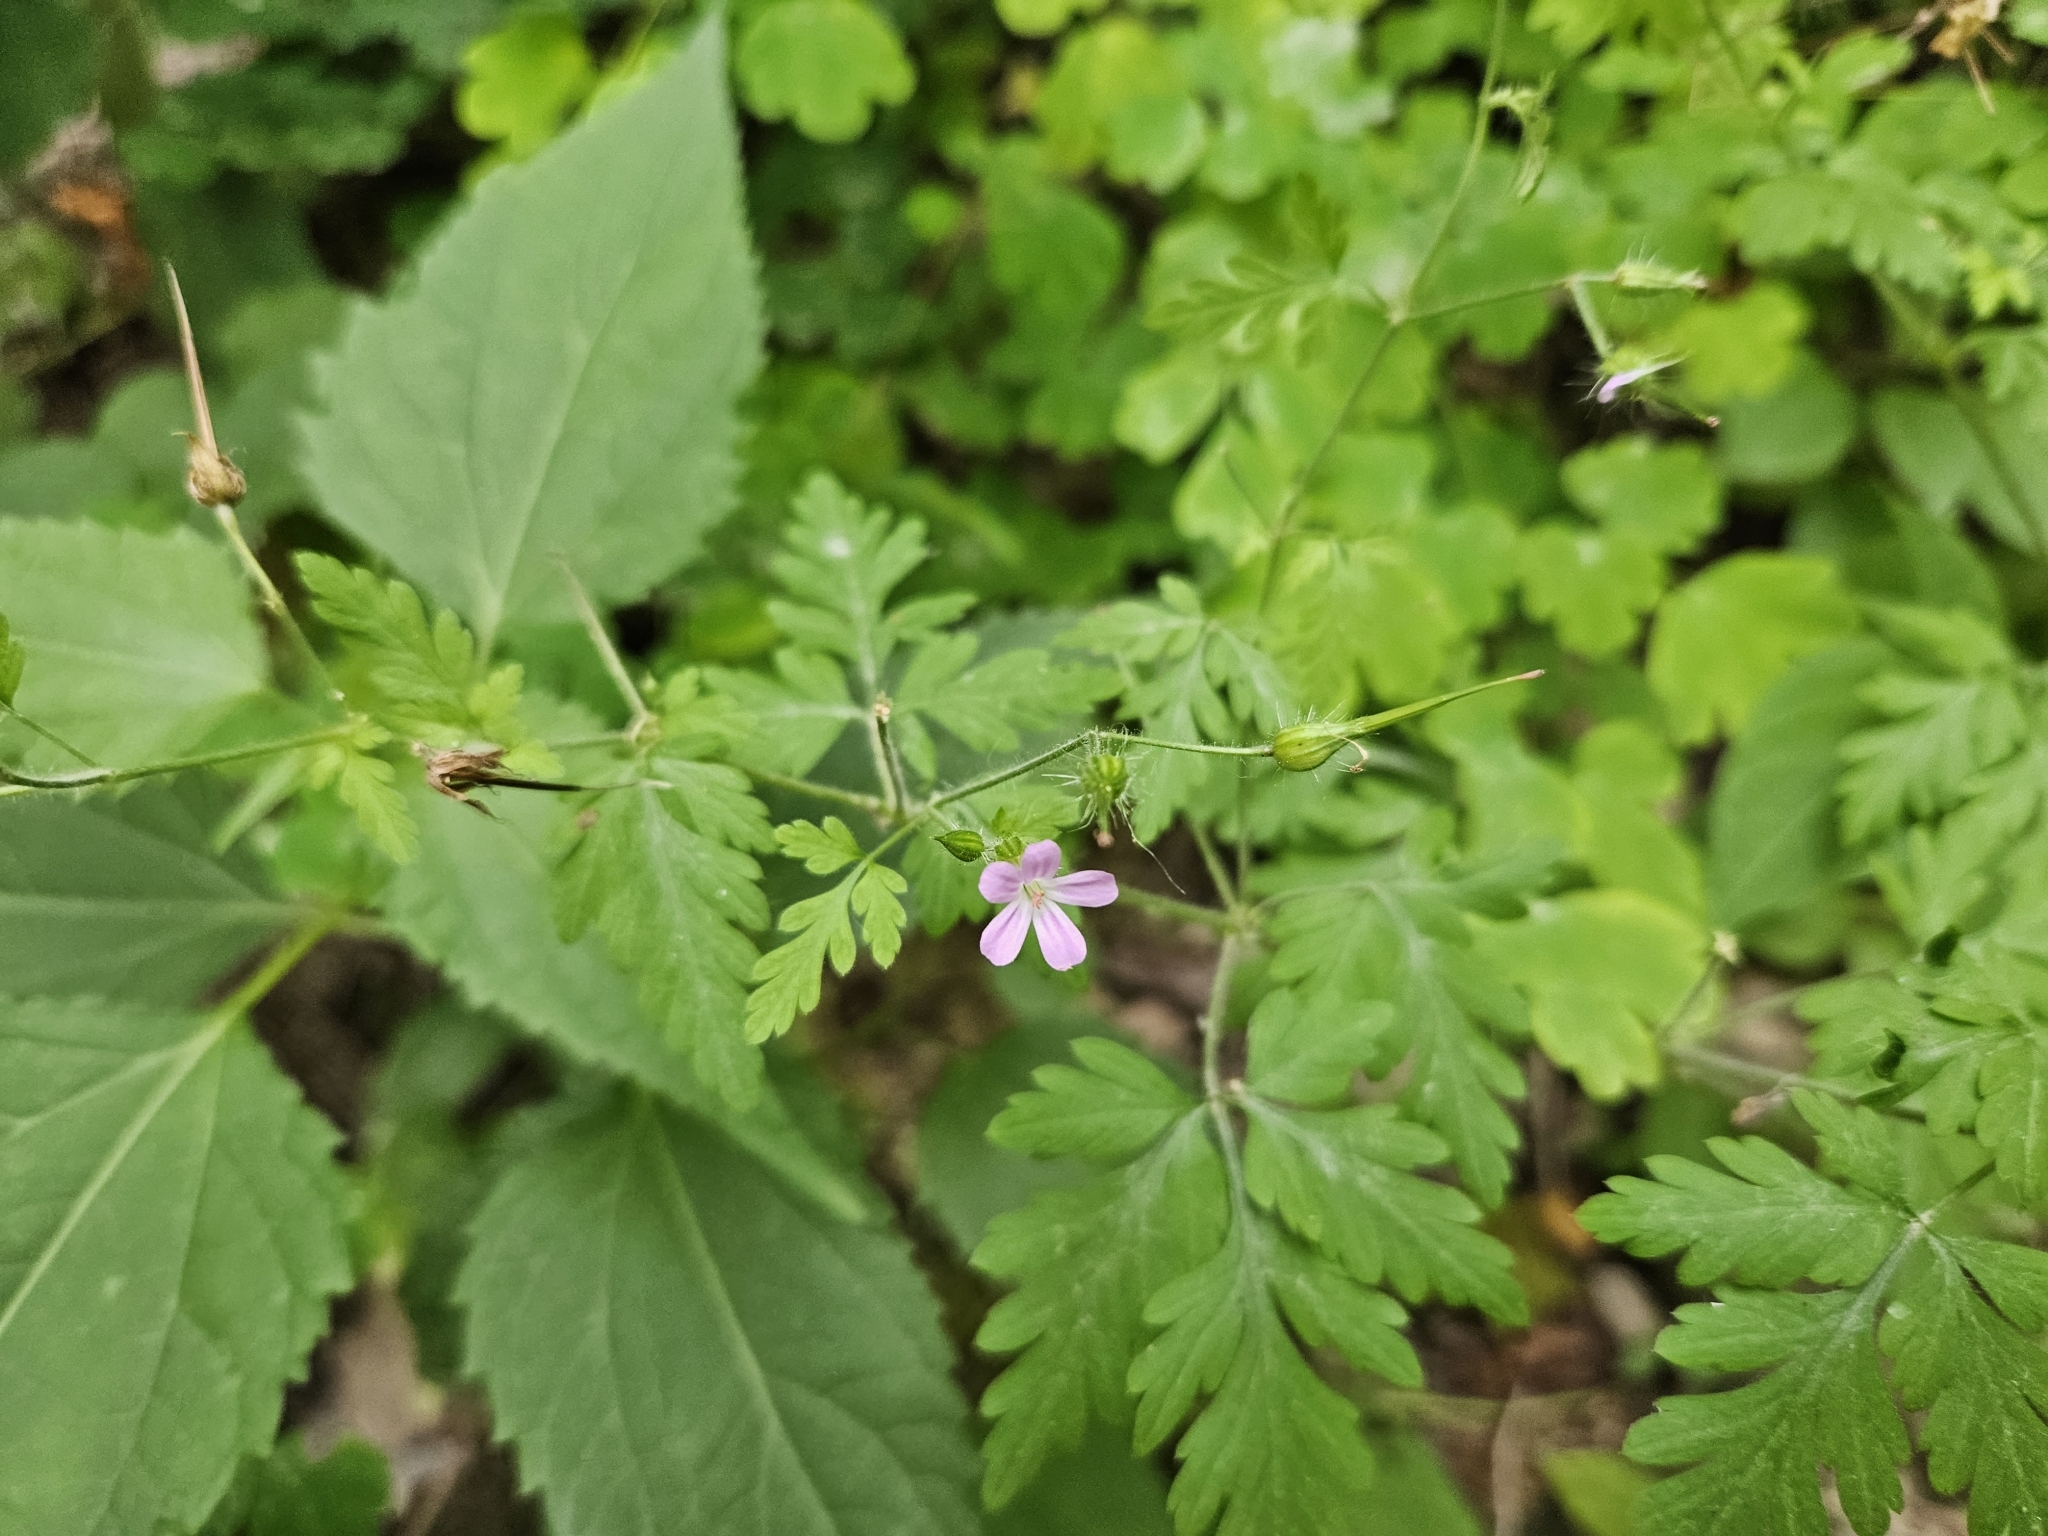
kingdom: Plantae
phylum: Tracheophyta
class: Magnoliopsida
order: Geraniales
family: Geraniaceae
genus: Geranium
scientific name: Geranium robertianum
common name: Herb-robert
